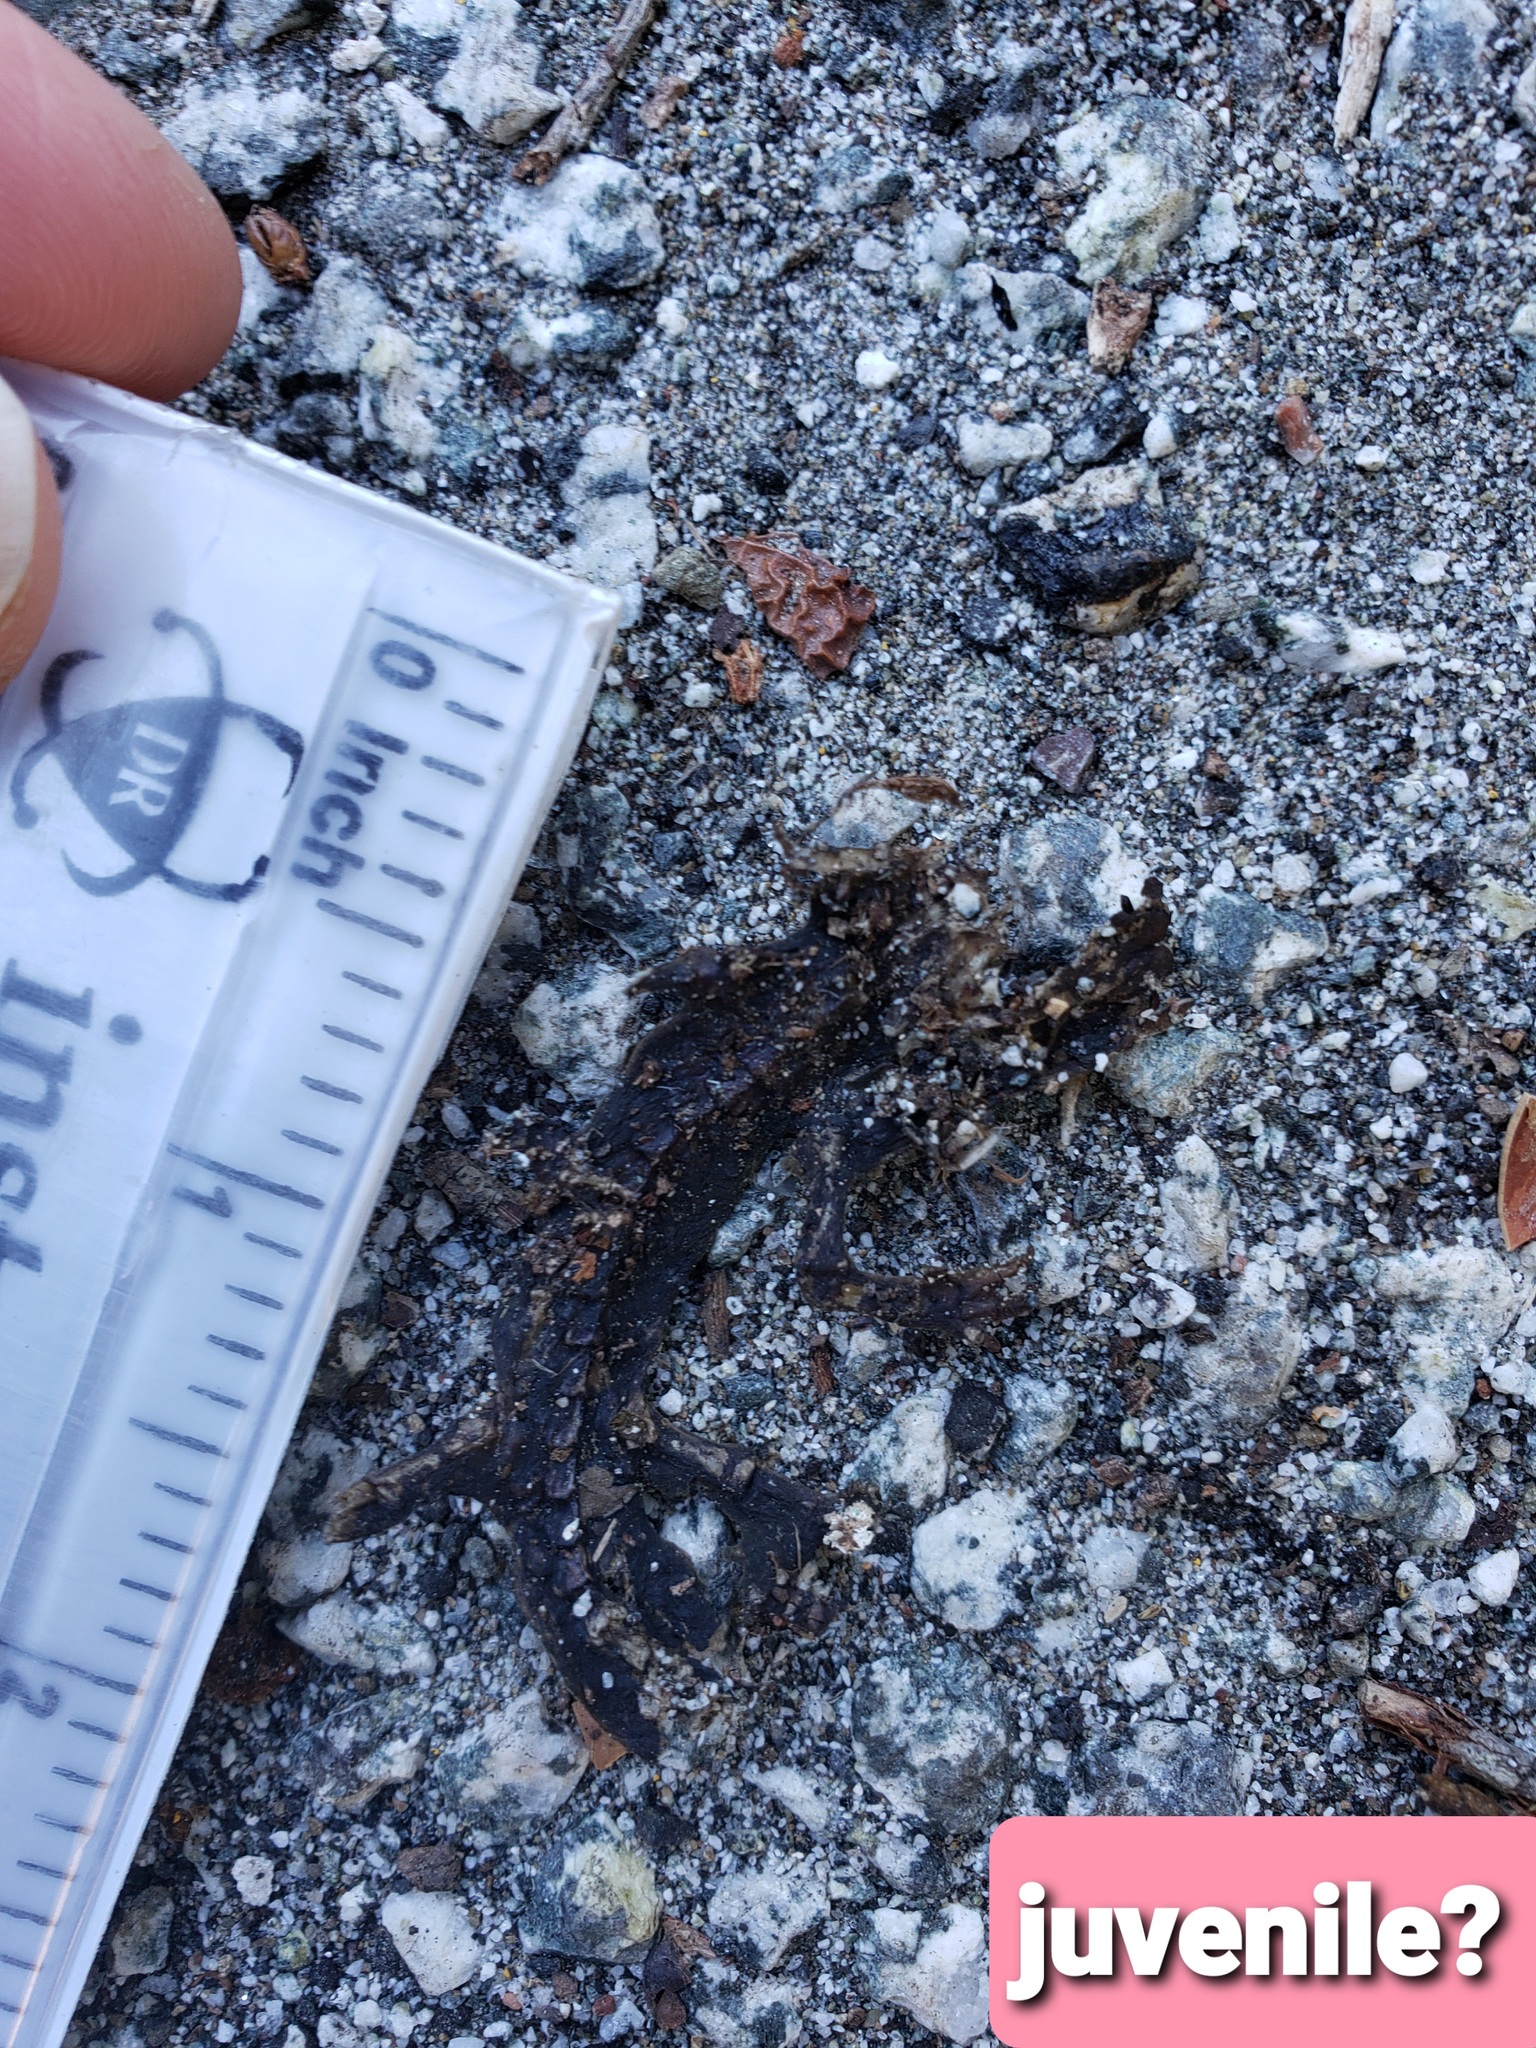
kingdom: Animalia
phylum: Chordata
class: Amphibia
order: Caudata
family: Salamandridae
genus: Taricha
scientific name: Taricha
